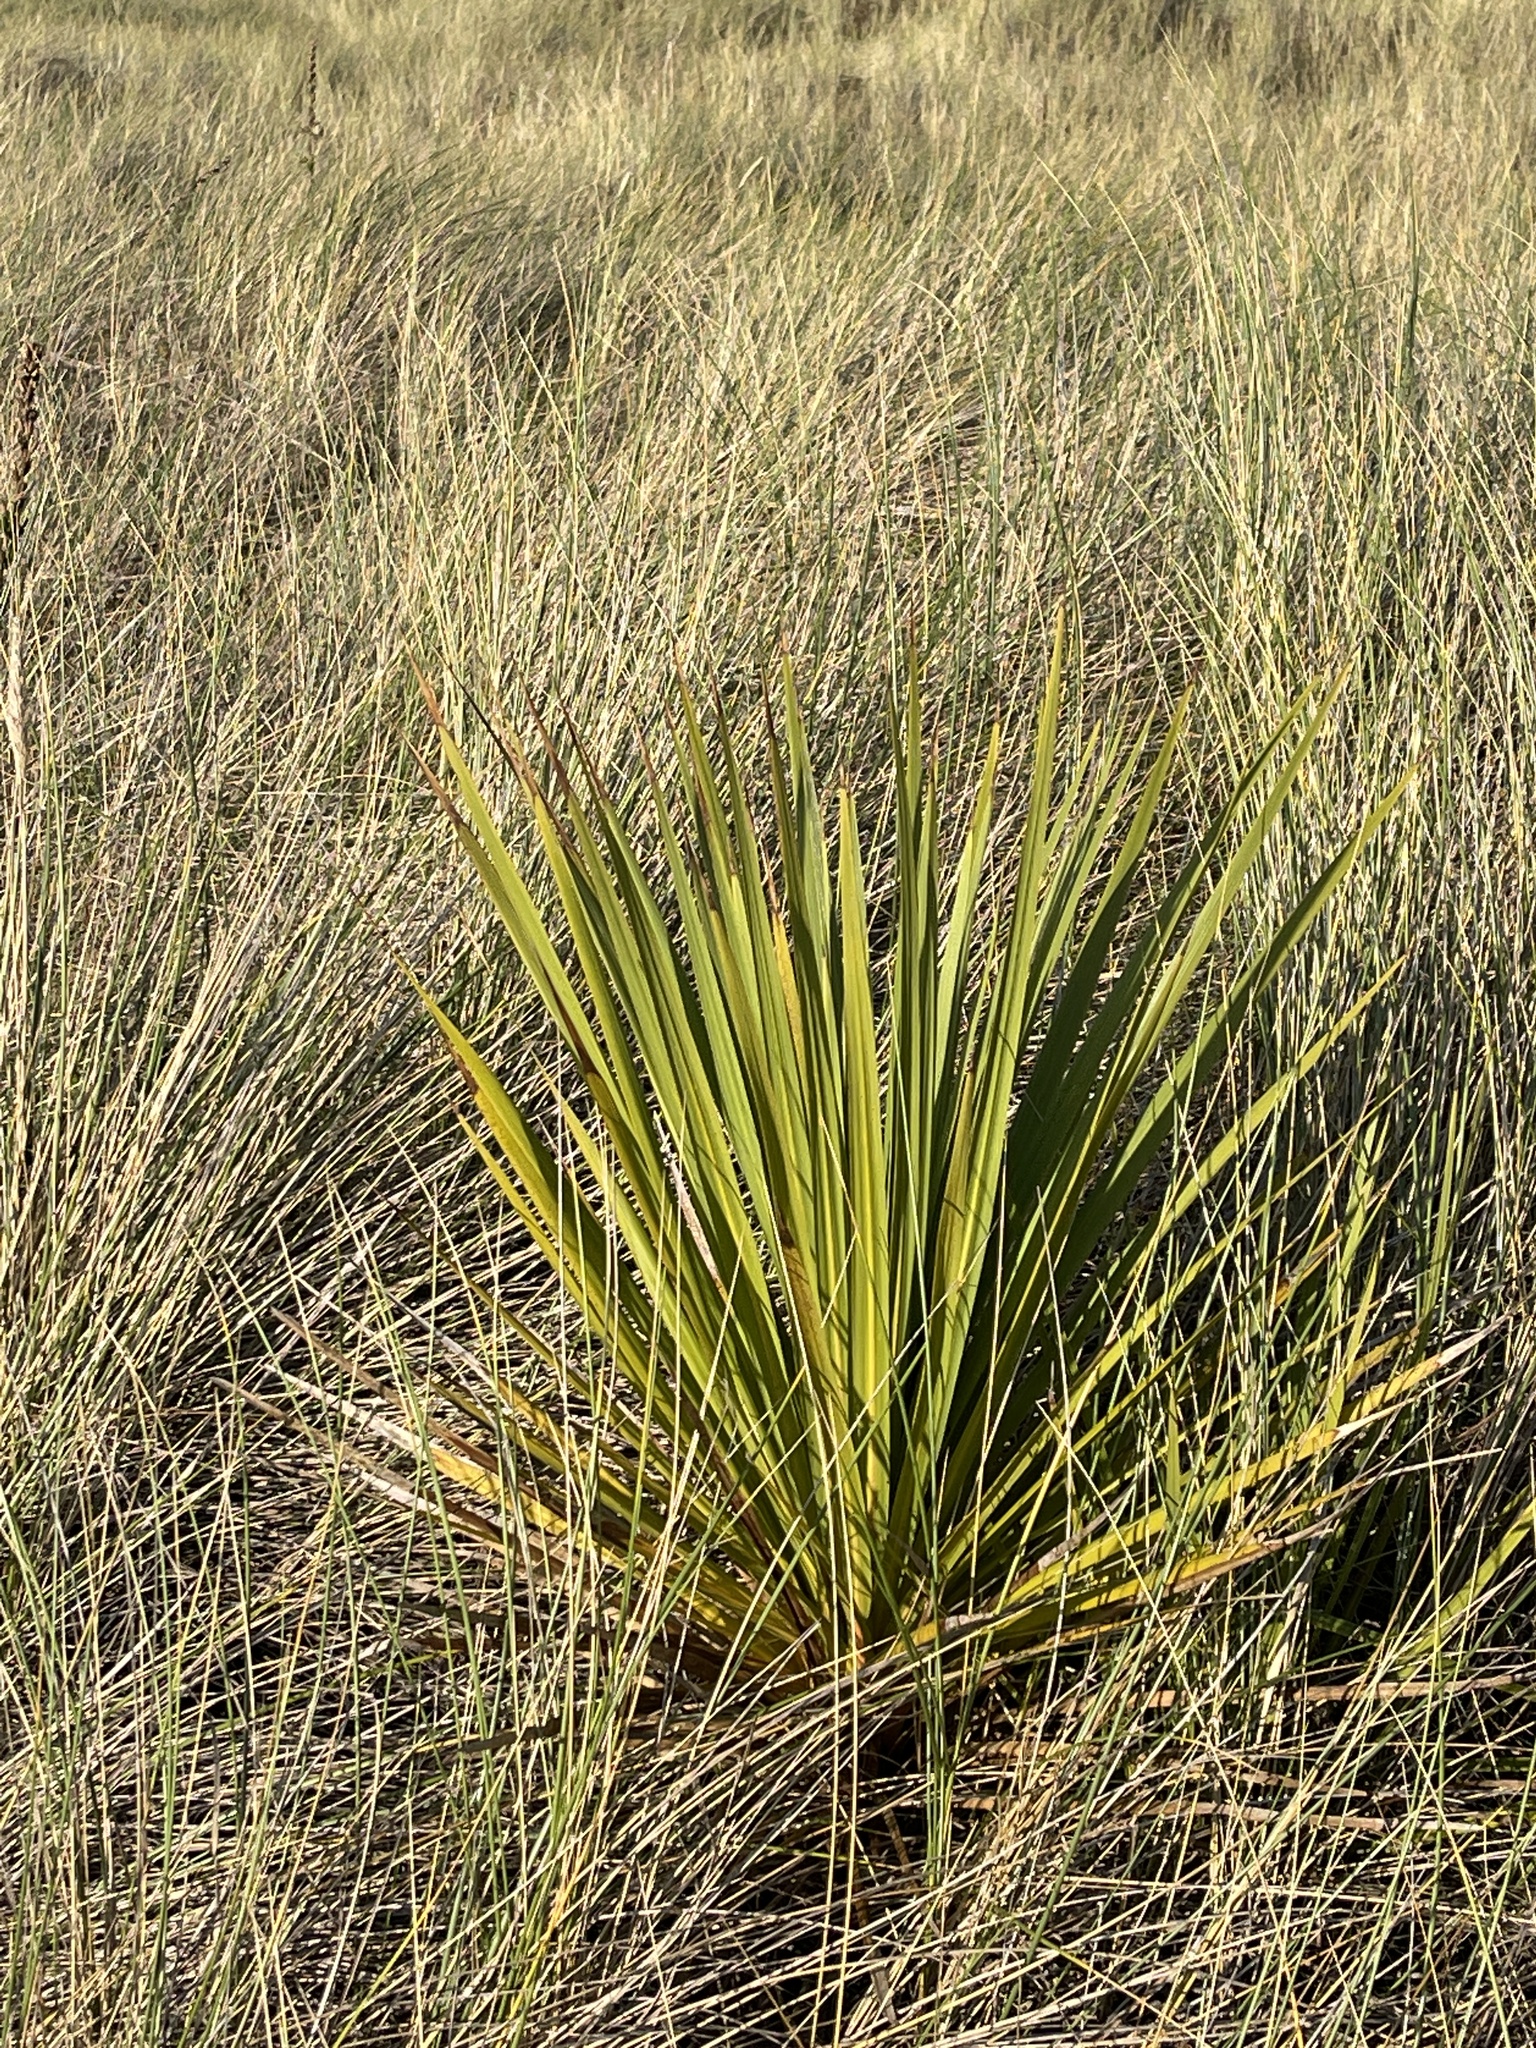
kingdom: Plantae
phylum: Tracheophyta
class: Liliopsida
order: Asparagales
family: Asparagaceae
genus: Yucca
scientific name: Yucca filamentosa
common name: Adam's-needle
